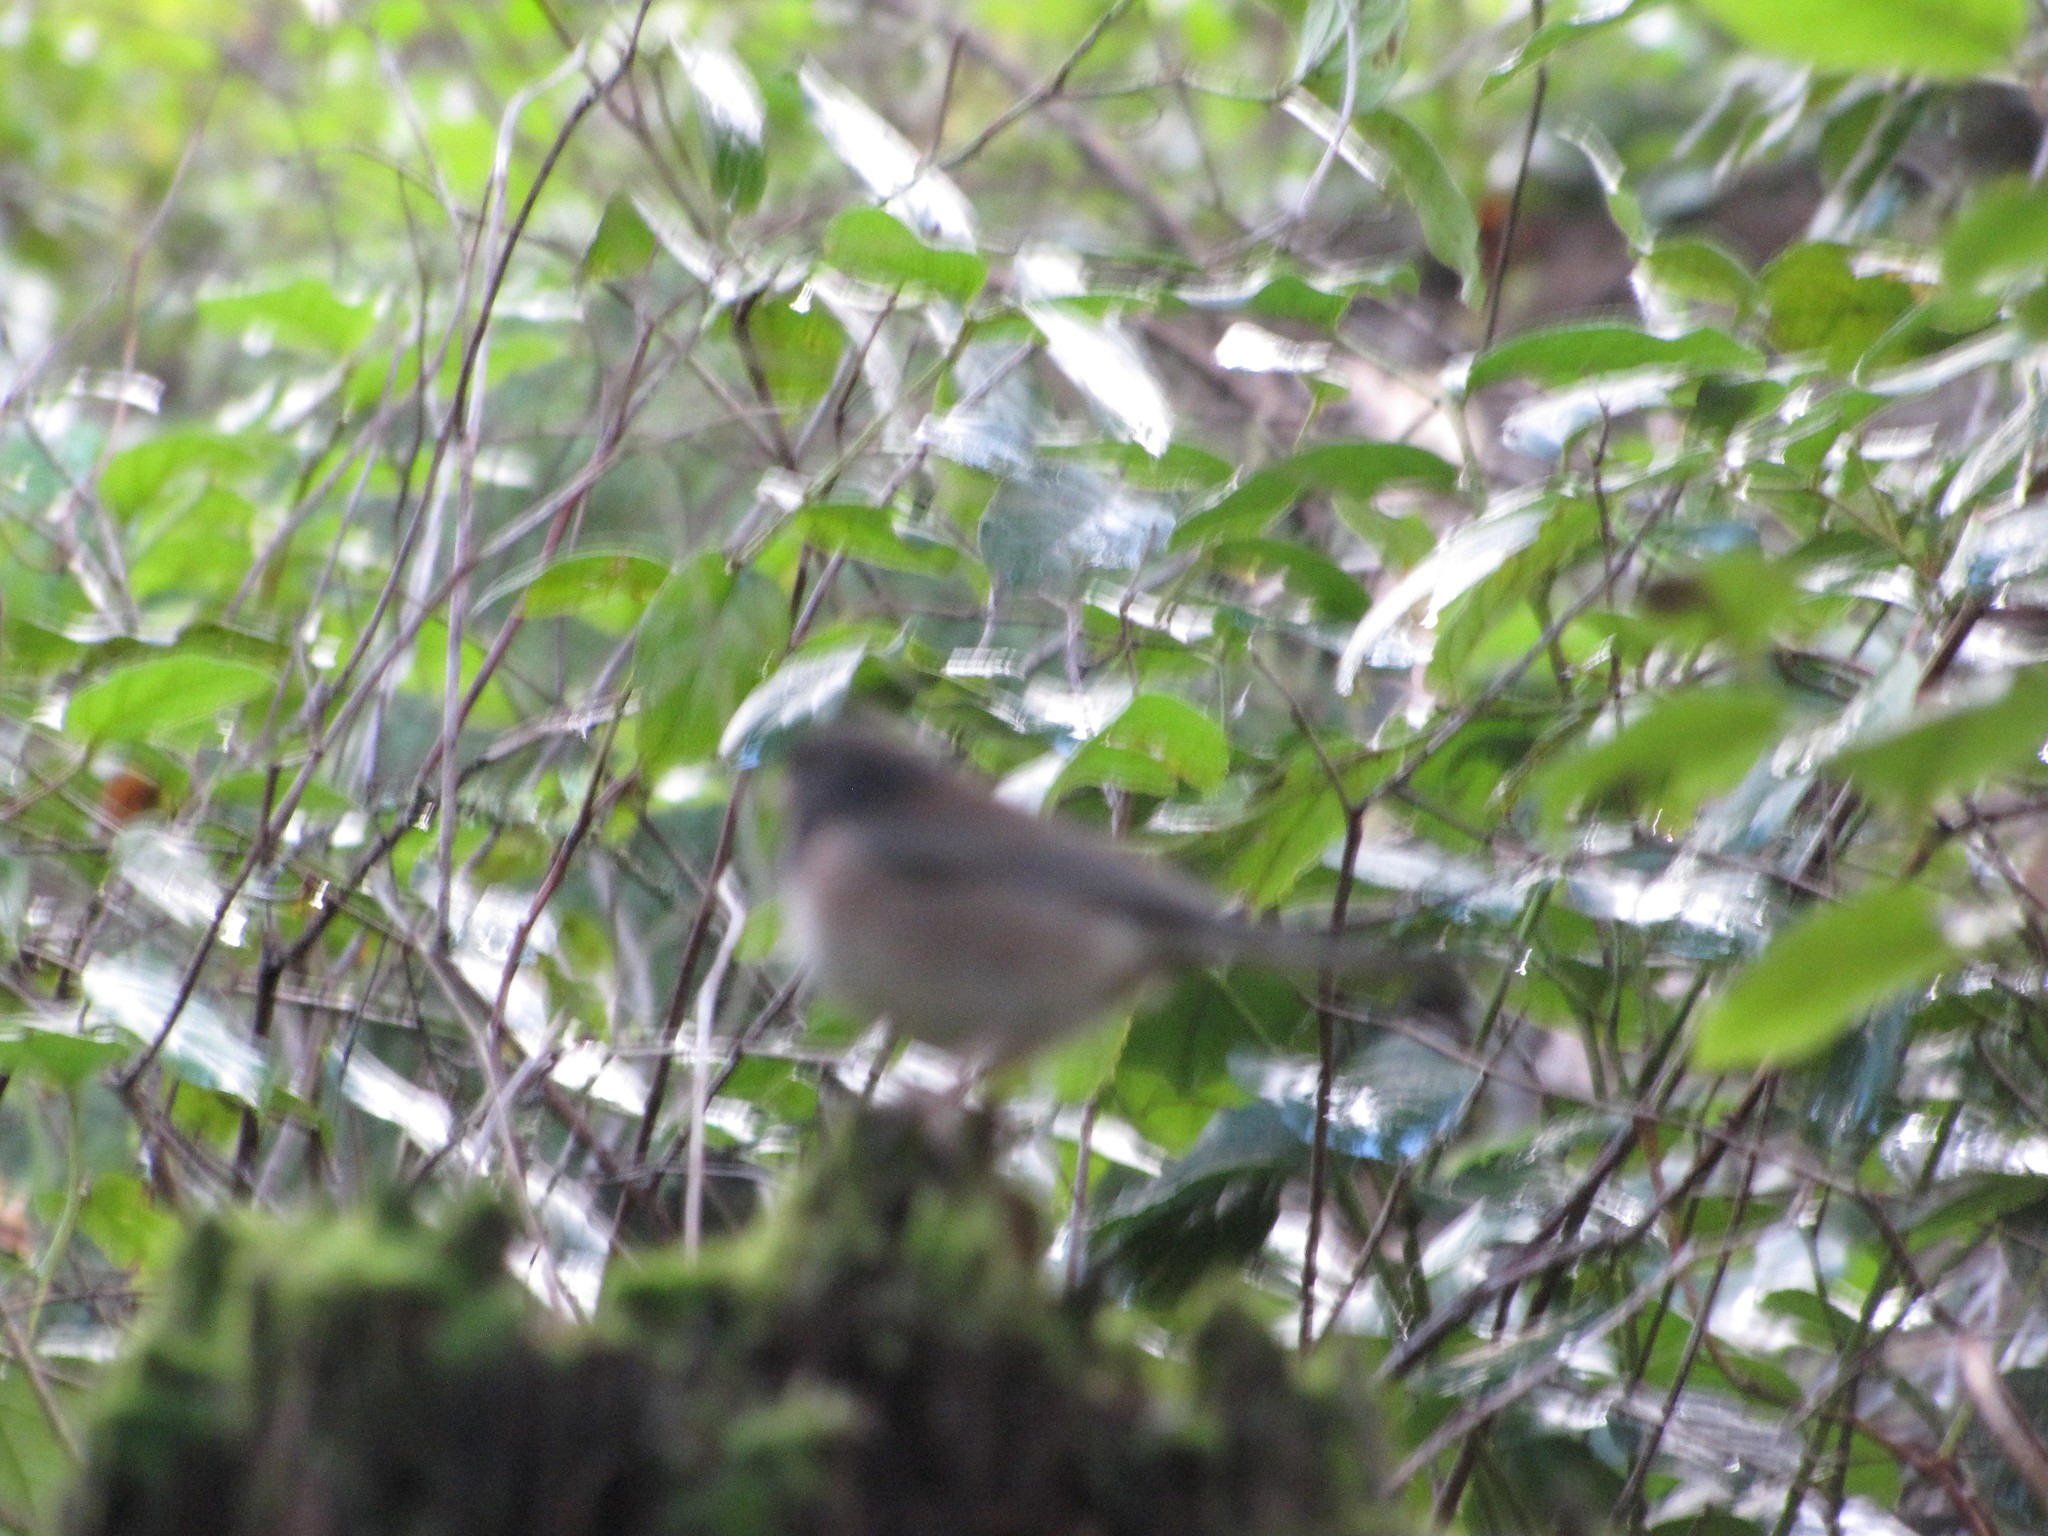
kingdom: Animalia
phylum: Chordata
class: Aves
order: Passeriformes
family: Passerellidae
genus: Junco
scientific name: Junco hyemalis
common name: Dark-eyed junco
